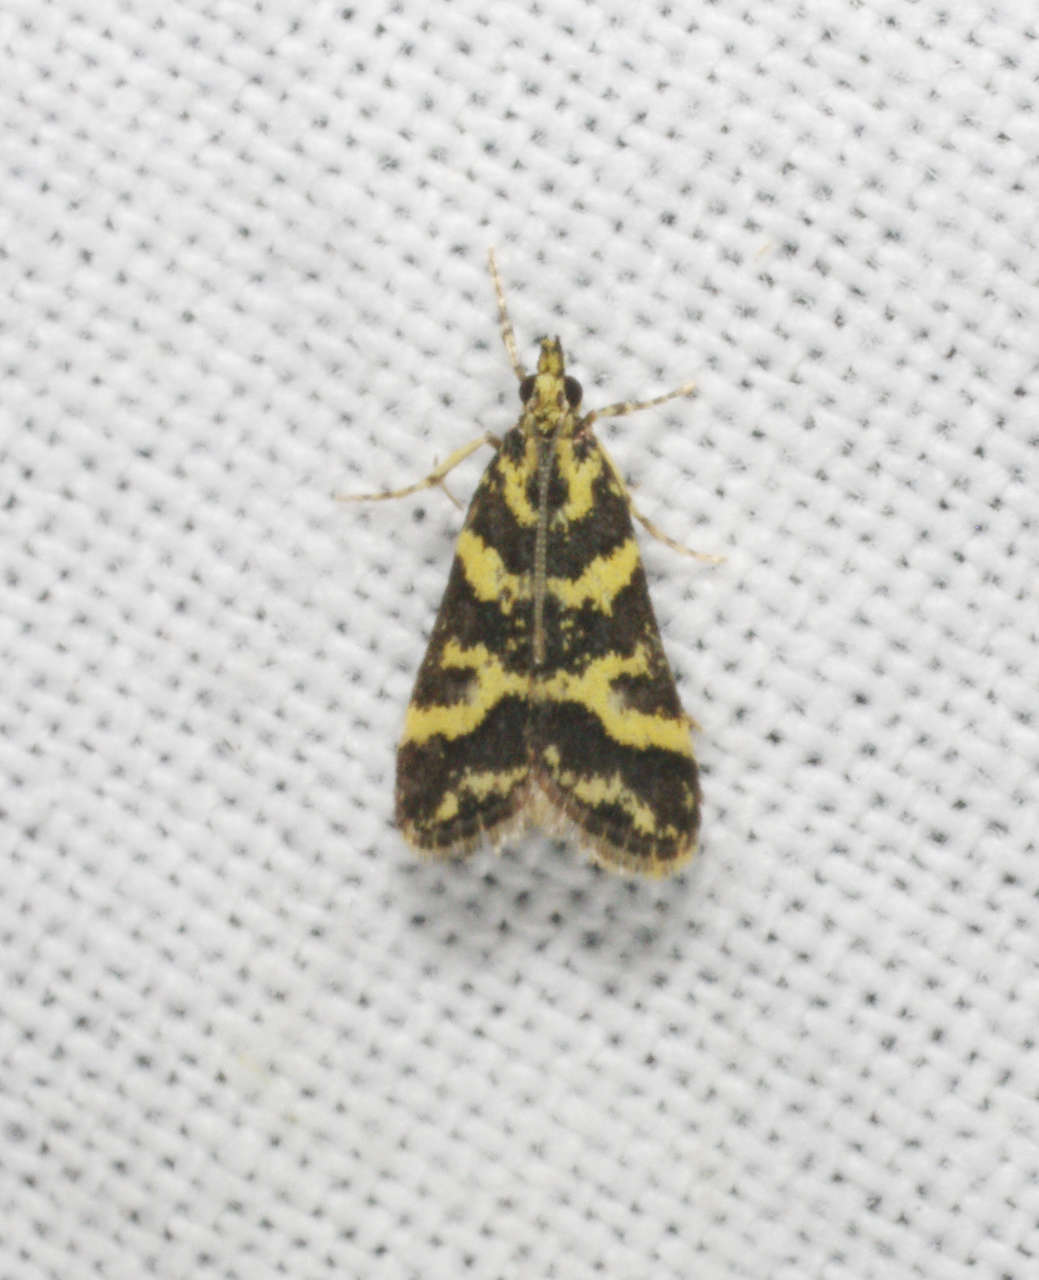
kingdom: Animalia
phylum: Arthropoda
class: Insecta
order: Lepidoptera
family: Crambidae
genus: Scoparia
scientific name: Scoparia spelaea
